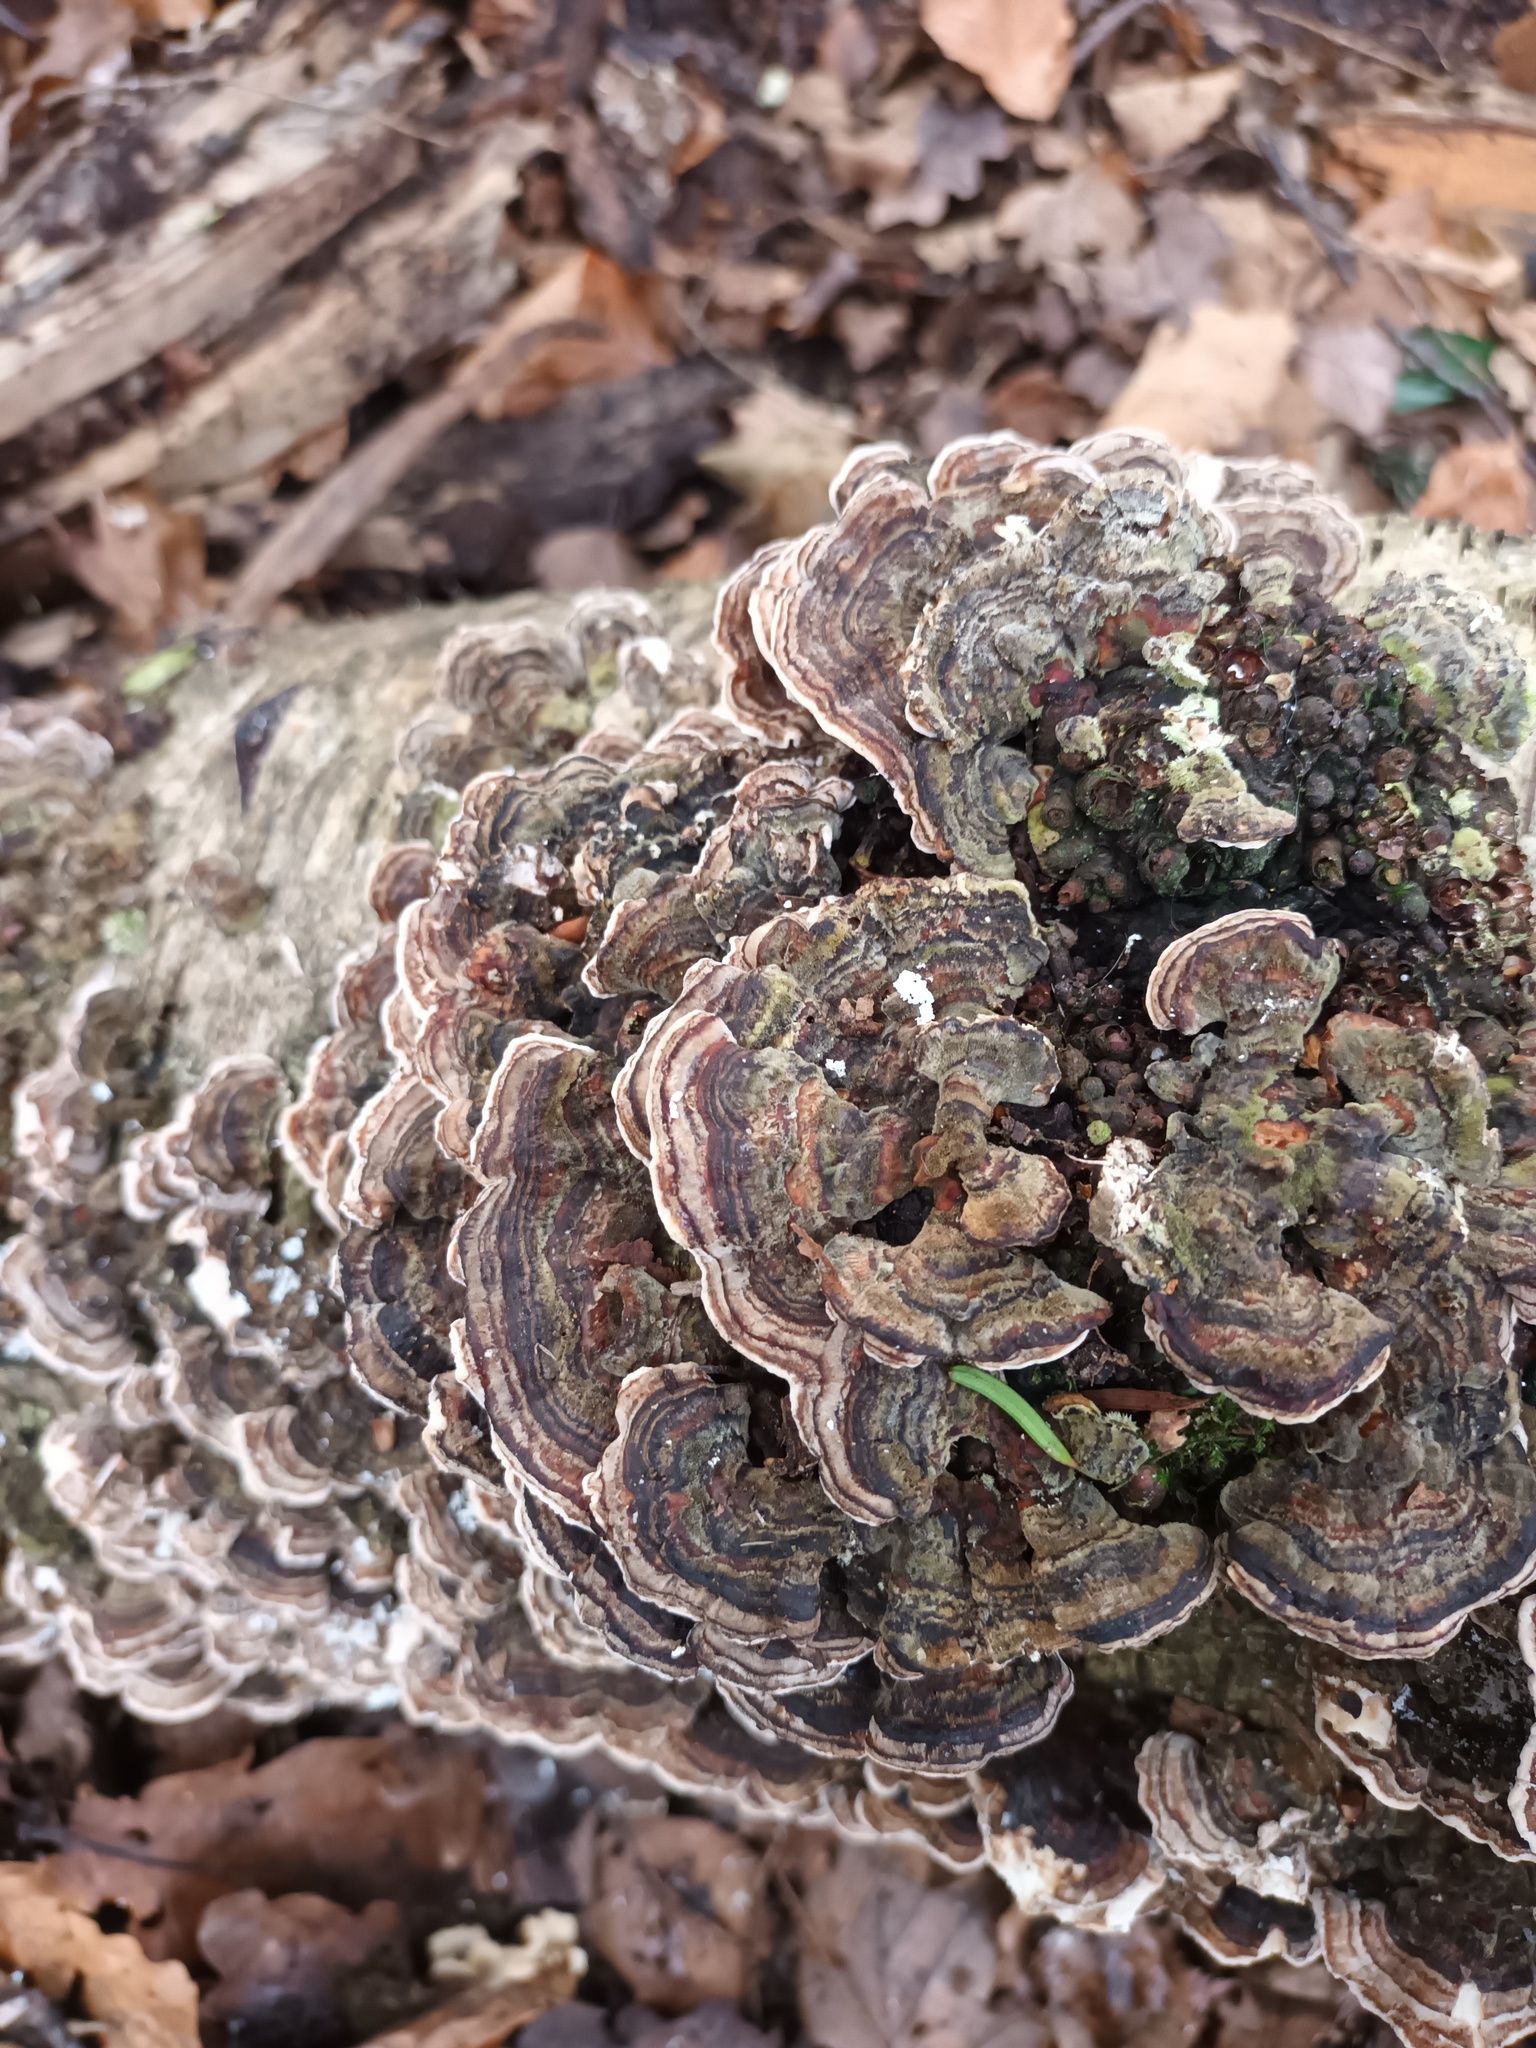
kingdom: Fungi
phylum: Basidiomycota
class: Agaricomycetes
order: Polyporales
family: Polyporaceae
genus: Trametes
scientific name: Trametes versicolor
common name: Turkeytail
